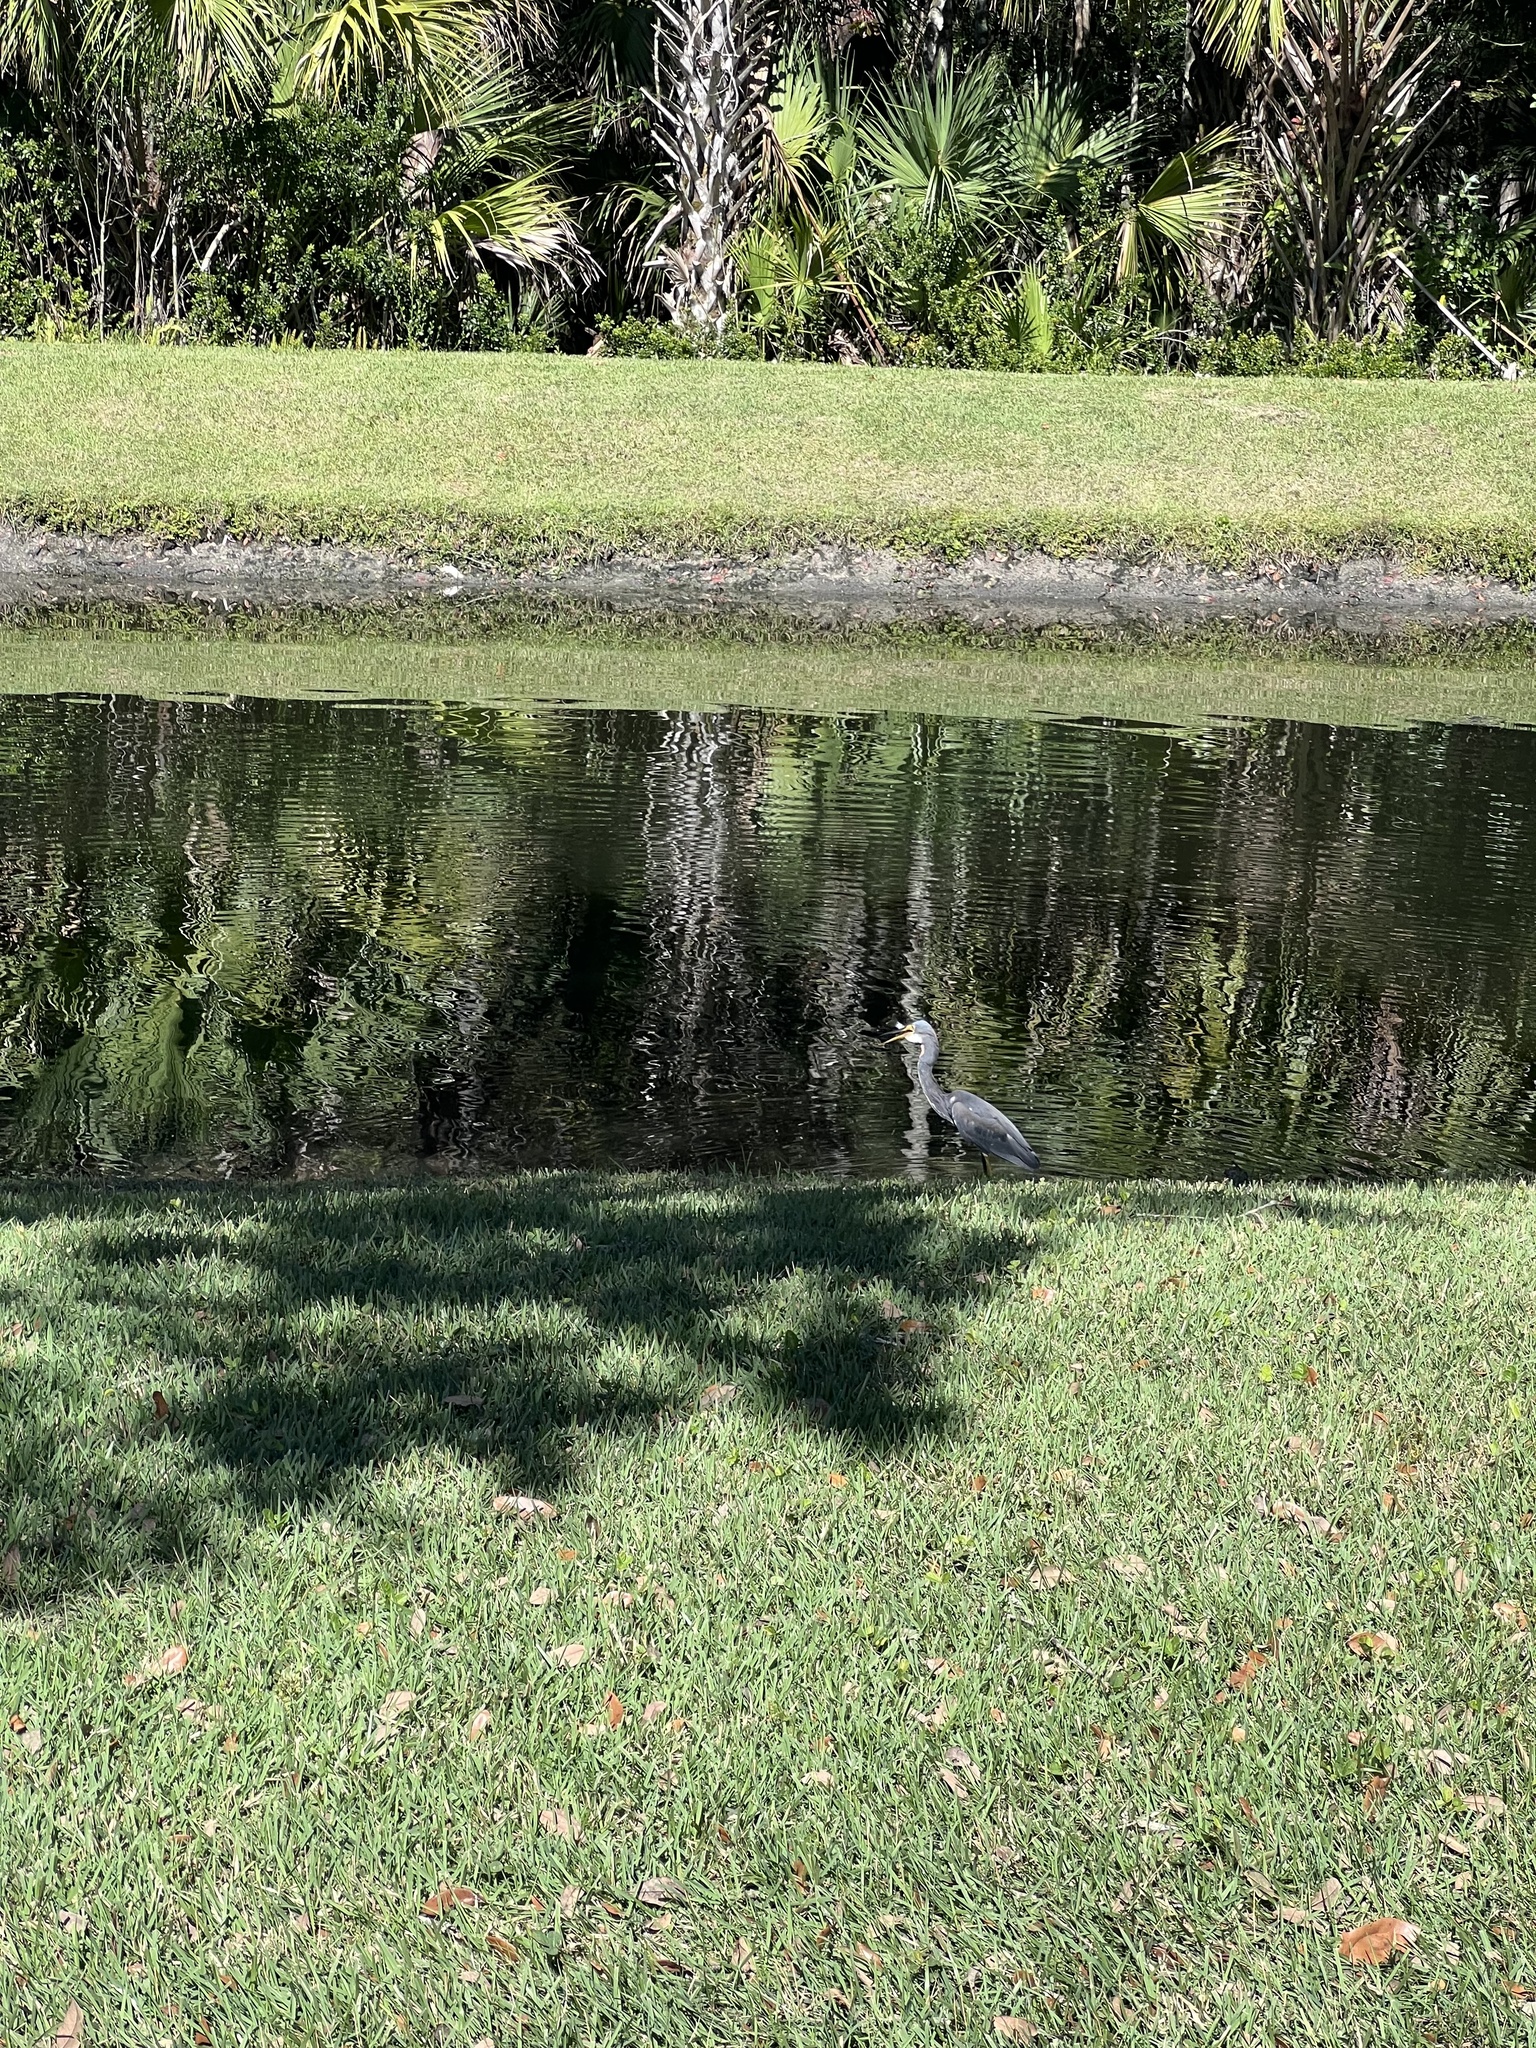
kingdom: Animalia
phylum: Chordata
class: Aves
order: Pelecaniformes
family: Ardeidae
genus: Egretta
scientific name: Egretta tricolor
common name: Tricolored heron
